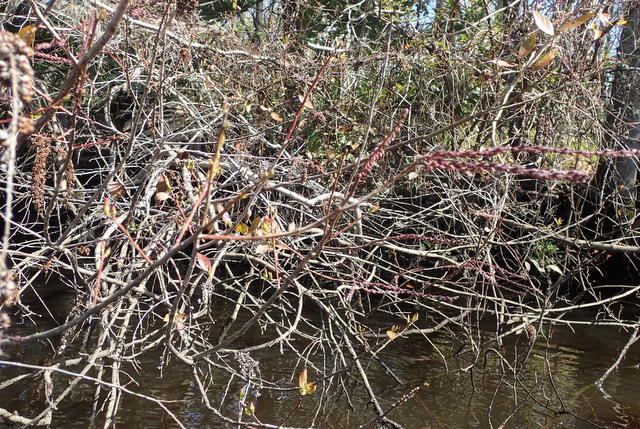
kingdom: Plantae
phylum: Tracheophyta
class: Magnoliopsida
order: Ericales
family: Ericaceae
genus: Eubotrys
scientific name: Eubotrys racemosa
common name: Fetterbush
